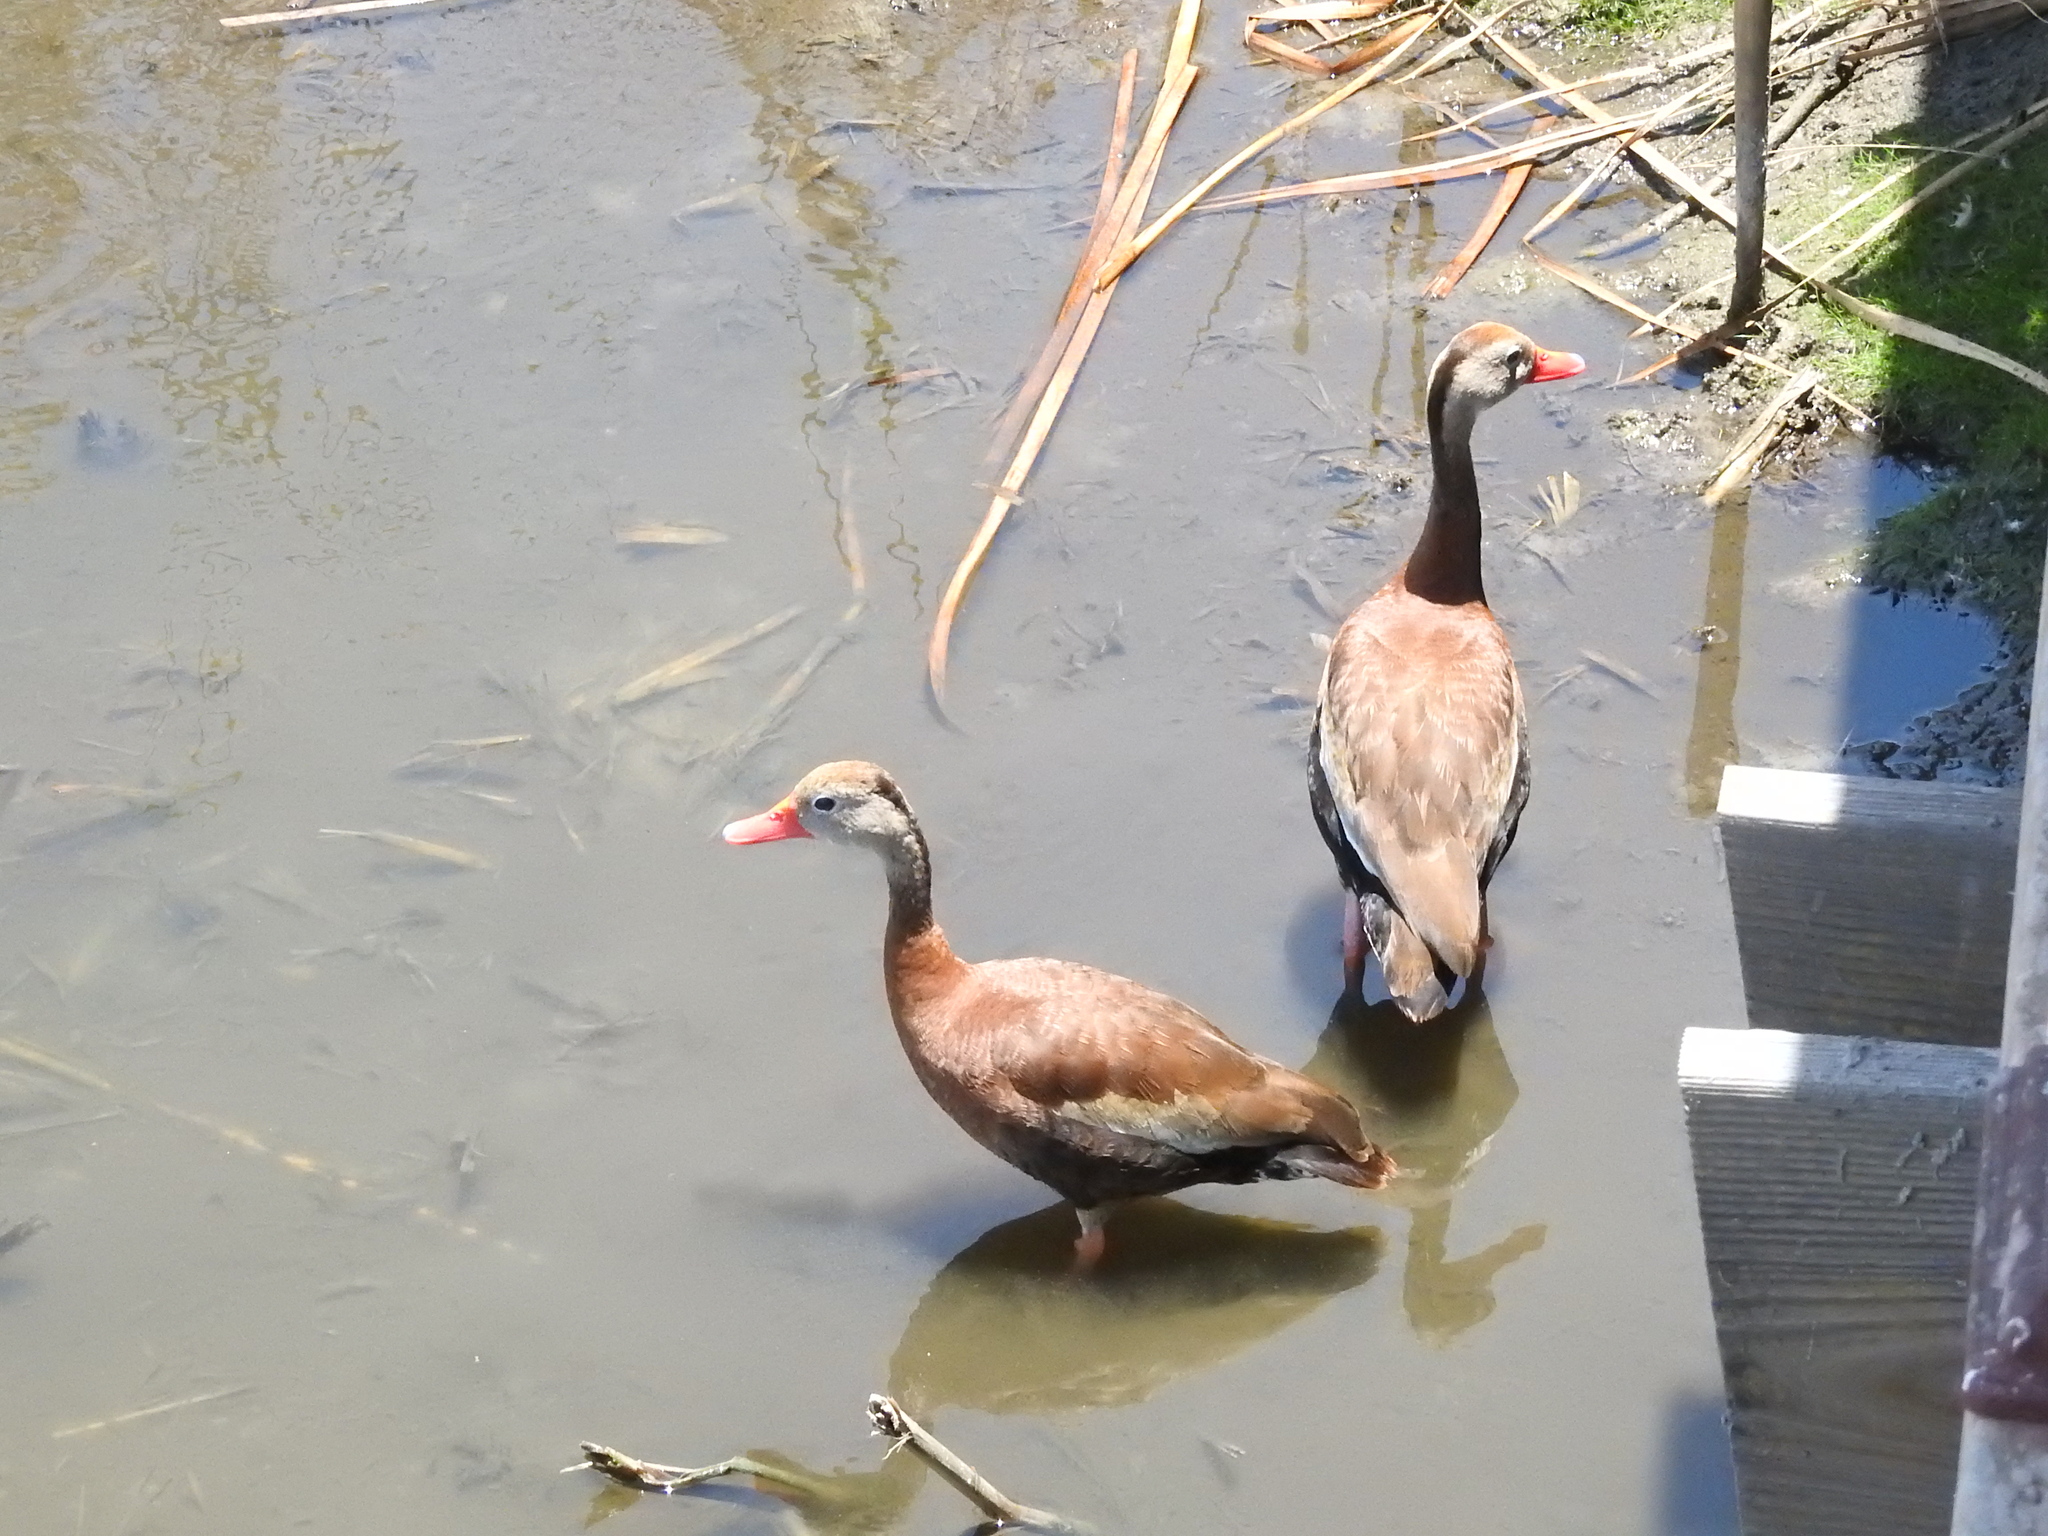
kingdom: Animalia
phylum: Chordata
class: Aves
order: Anseriformes
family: Anatidae
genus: Dendrocygna
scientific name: Dendrocygna autumnalis
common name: Black-bellied whistling duck
